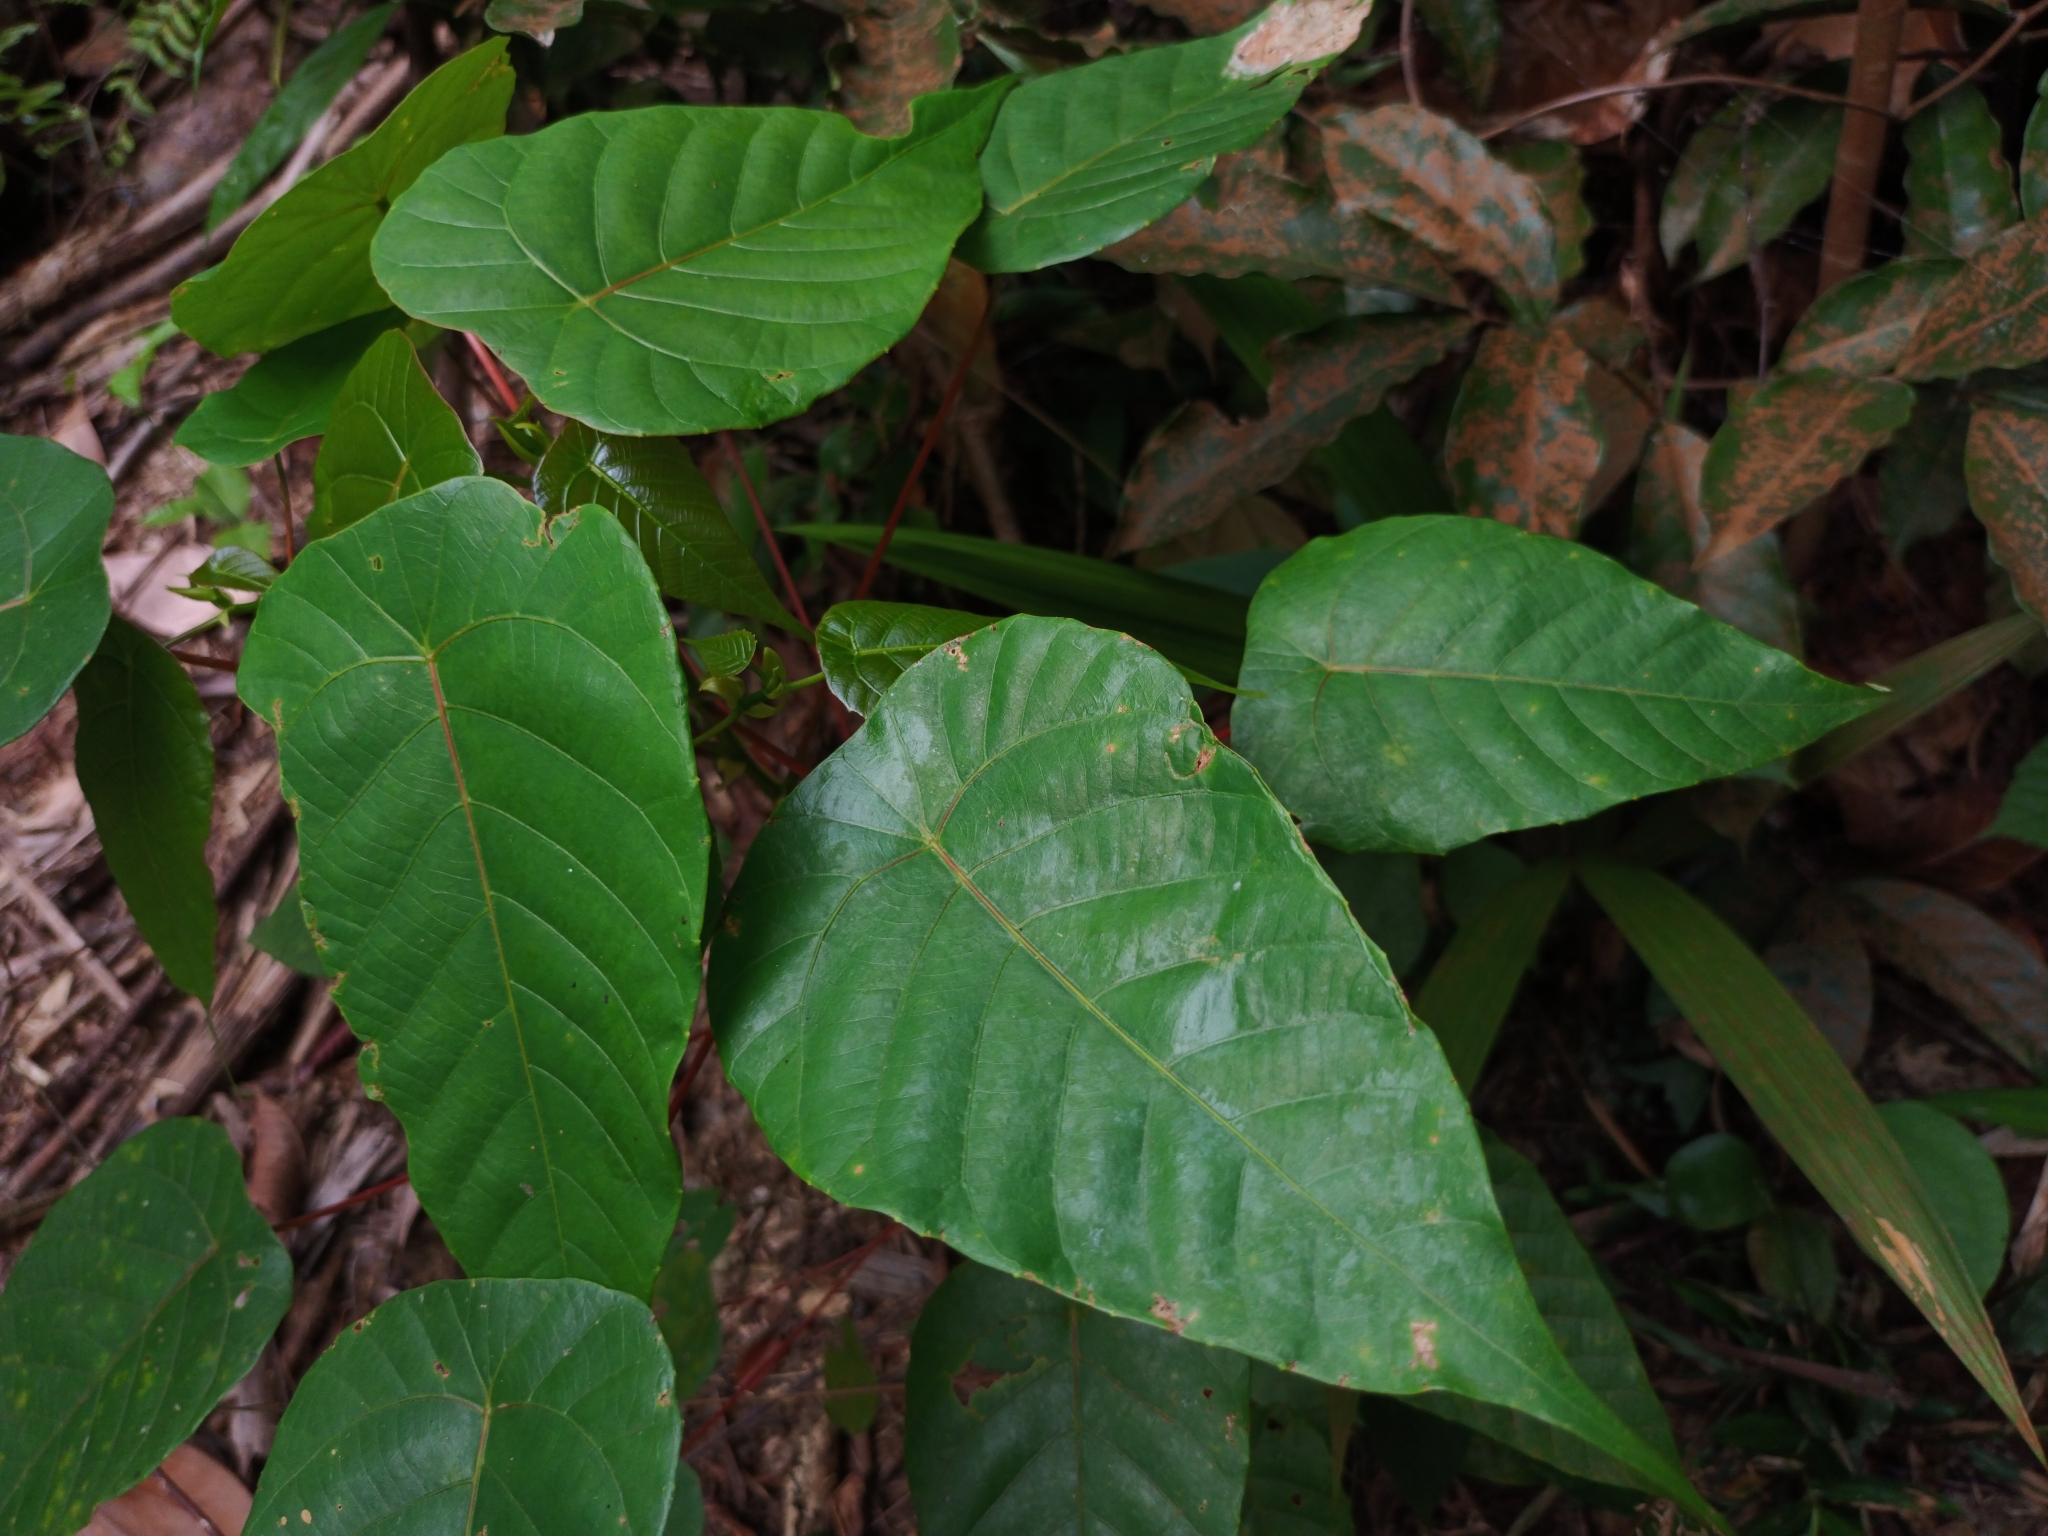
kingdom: Plantae
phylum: Tracheophyta
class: Magnoliopsida
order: Malpighiales
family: Euphorbiaceae
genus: Macaranga
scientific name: Macaranga hullettii
